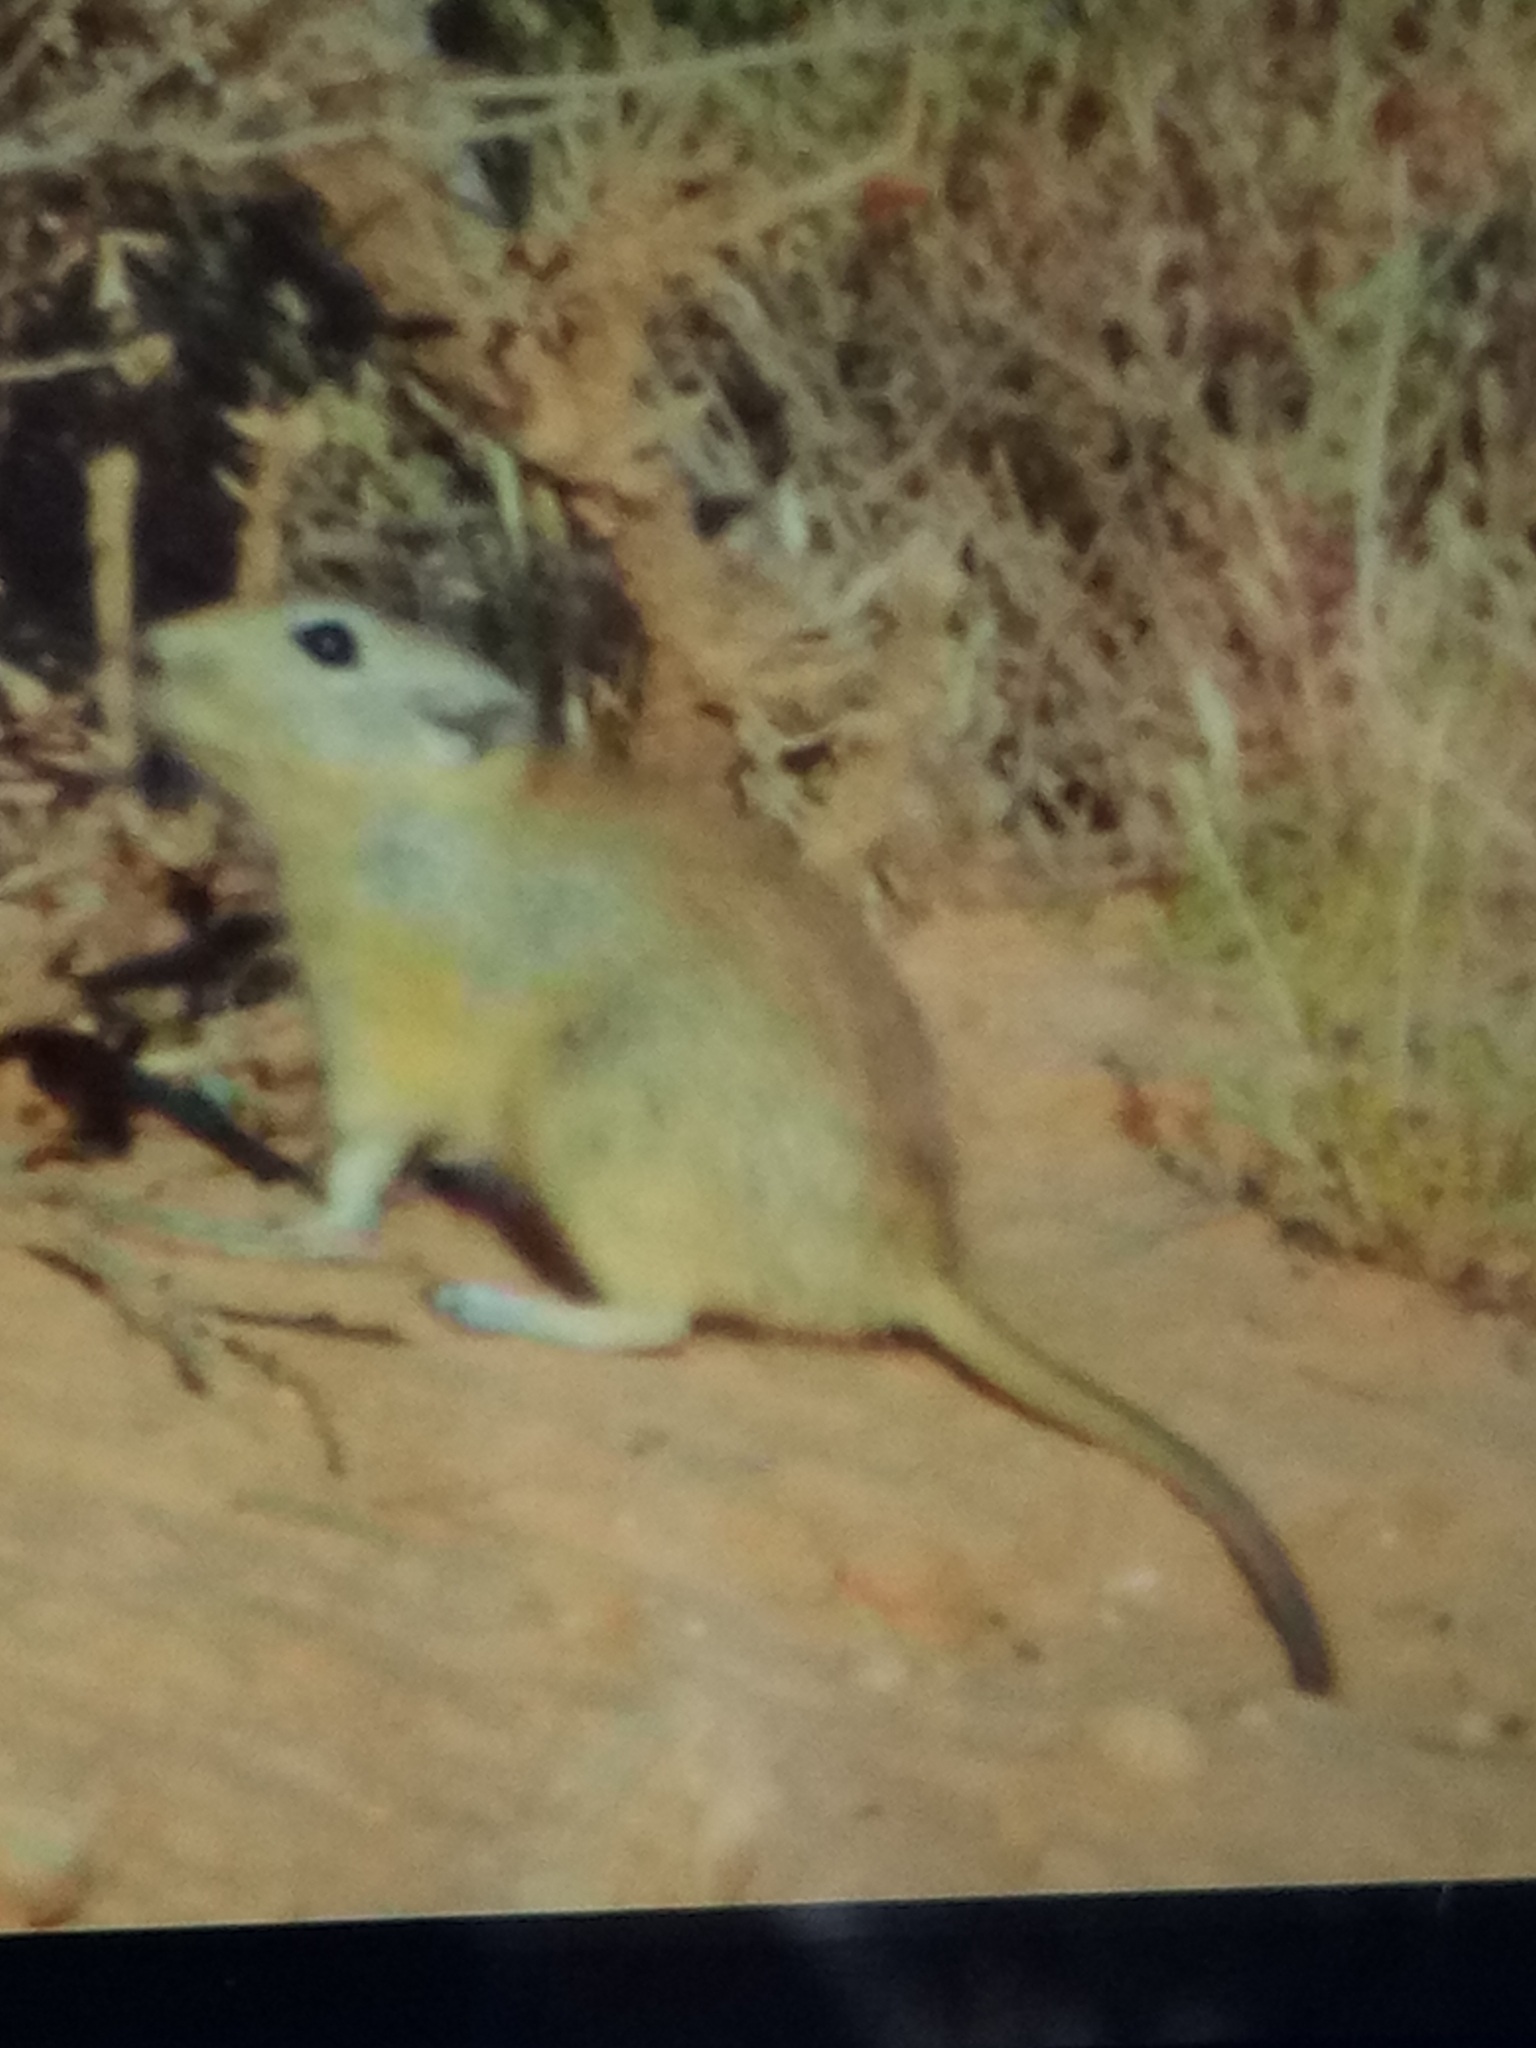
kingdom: Animalia
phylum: Chordata
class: Mammalia
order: Rodentia
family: Muridae
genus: Psammomys
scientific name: Psammomys obesus
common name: Fat sand rat
